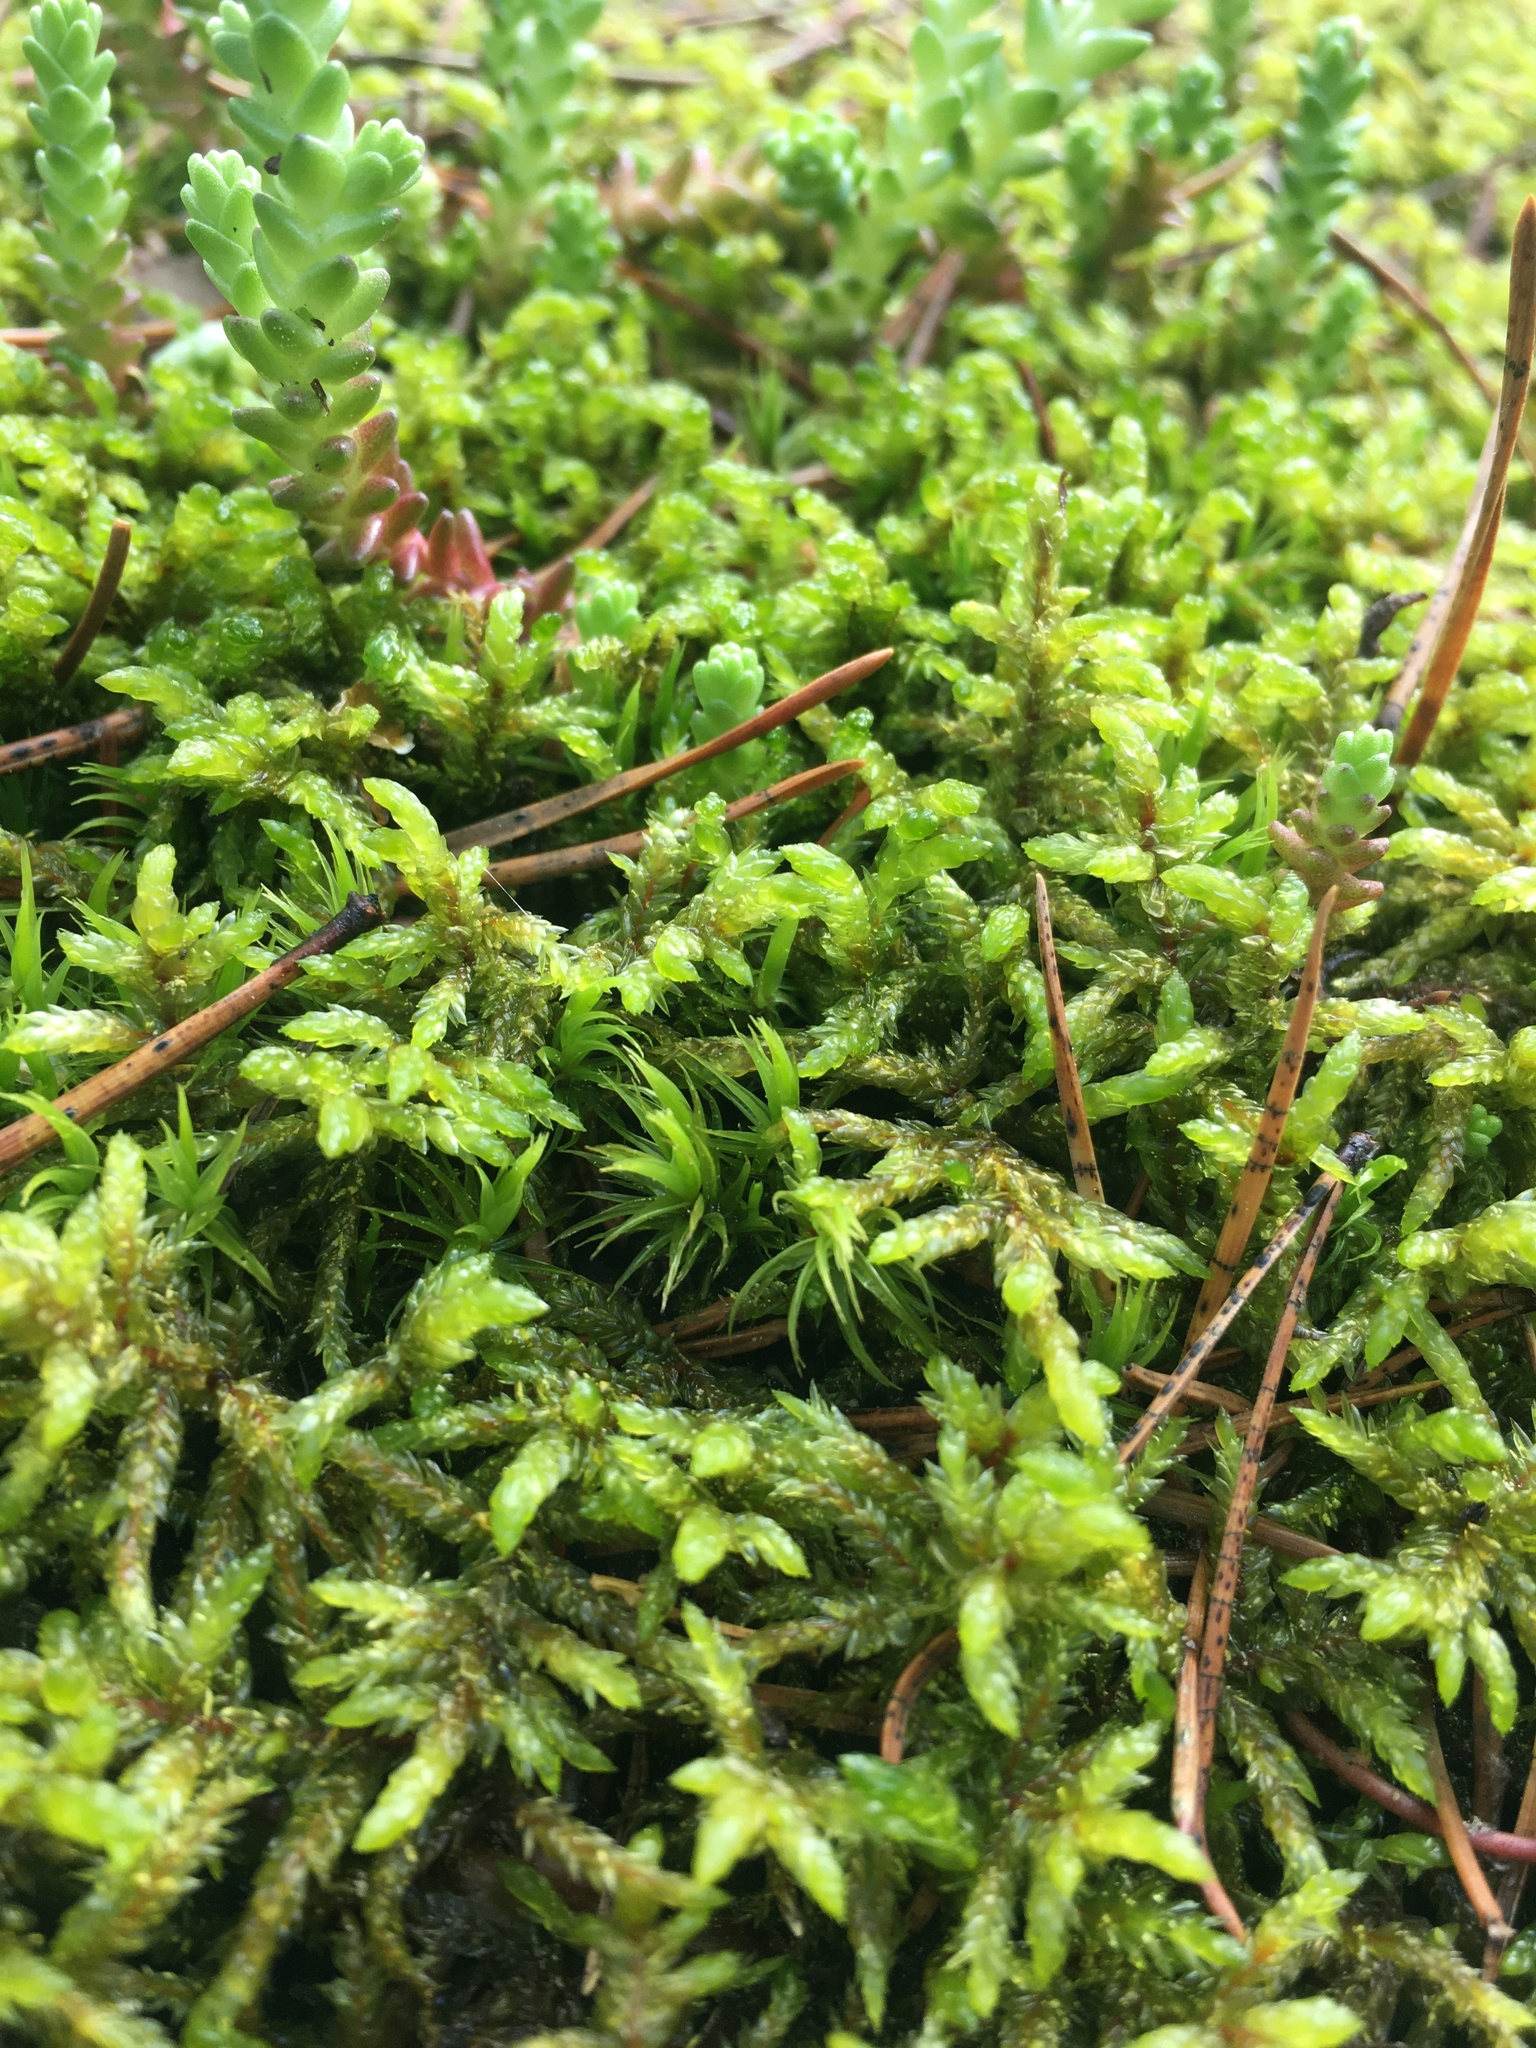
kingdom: Plantae
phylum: Bryophyta
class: Bryopsida
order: Hypnales
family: Hylocomiaceae
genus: Pleurozium
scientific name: Pleurozium schreberi
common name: Red-stemmed feather moss
